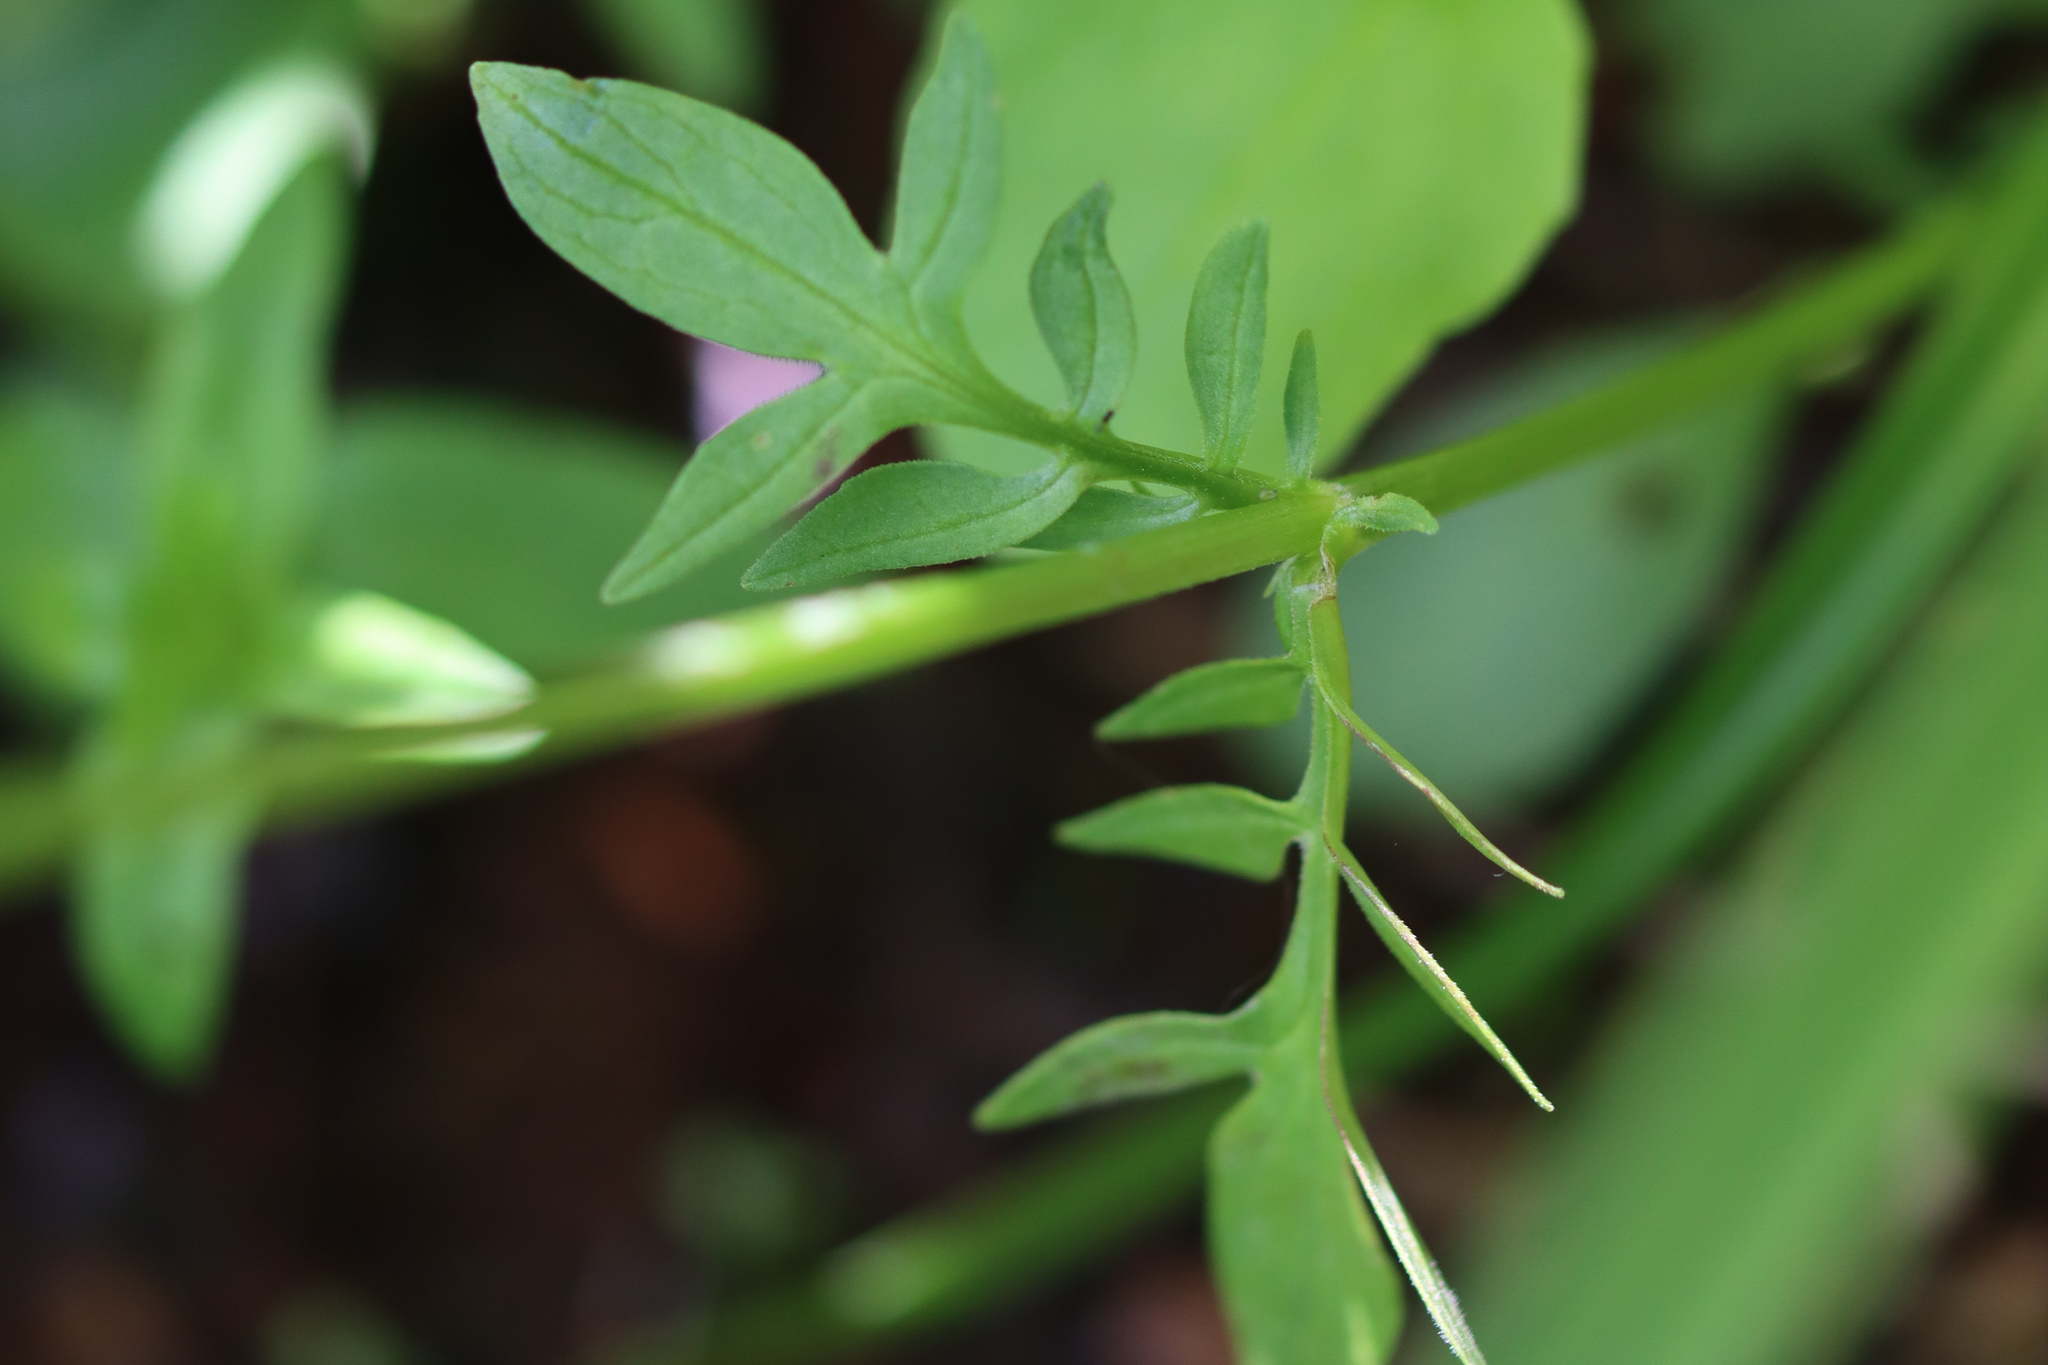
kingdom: Plantae
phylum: Tracheophyta
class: Magnoliopsida
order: Dipsacales
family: Caprifoliaceae
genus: Valeriana
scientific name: Valeriana dioica
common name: Marsh valerian
